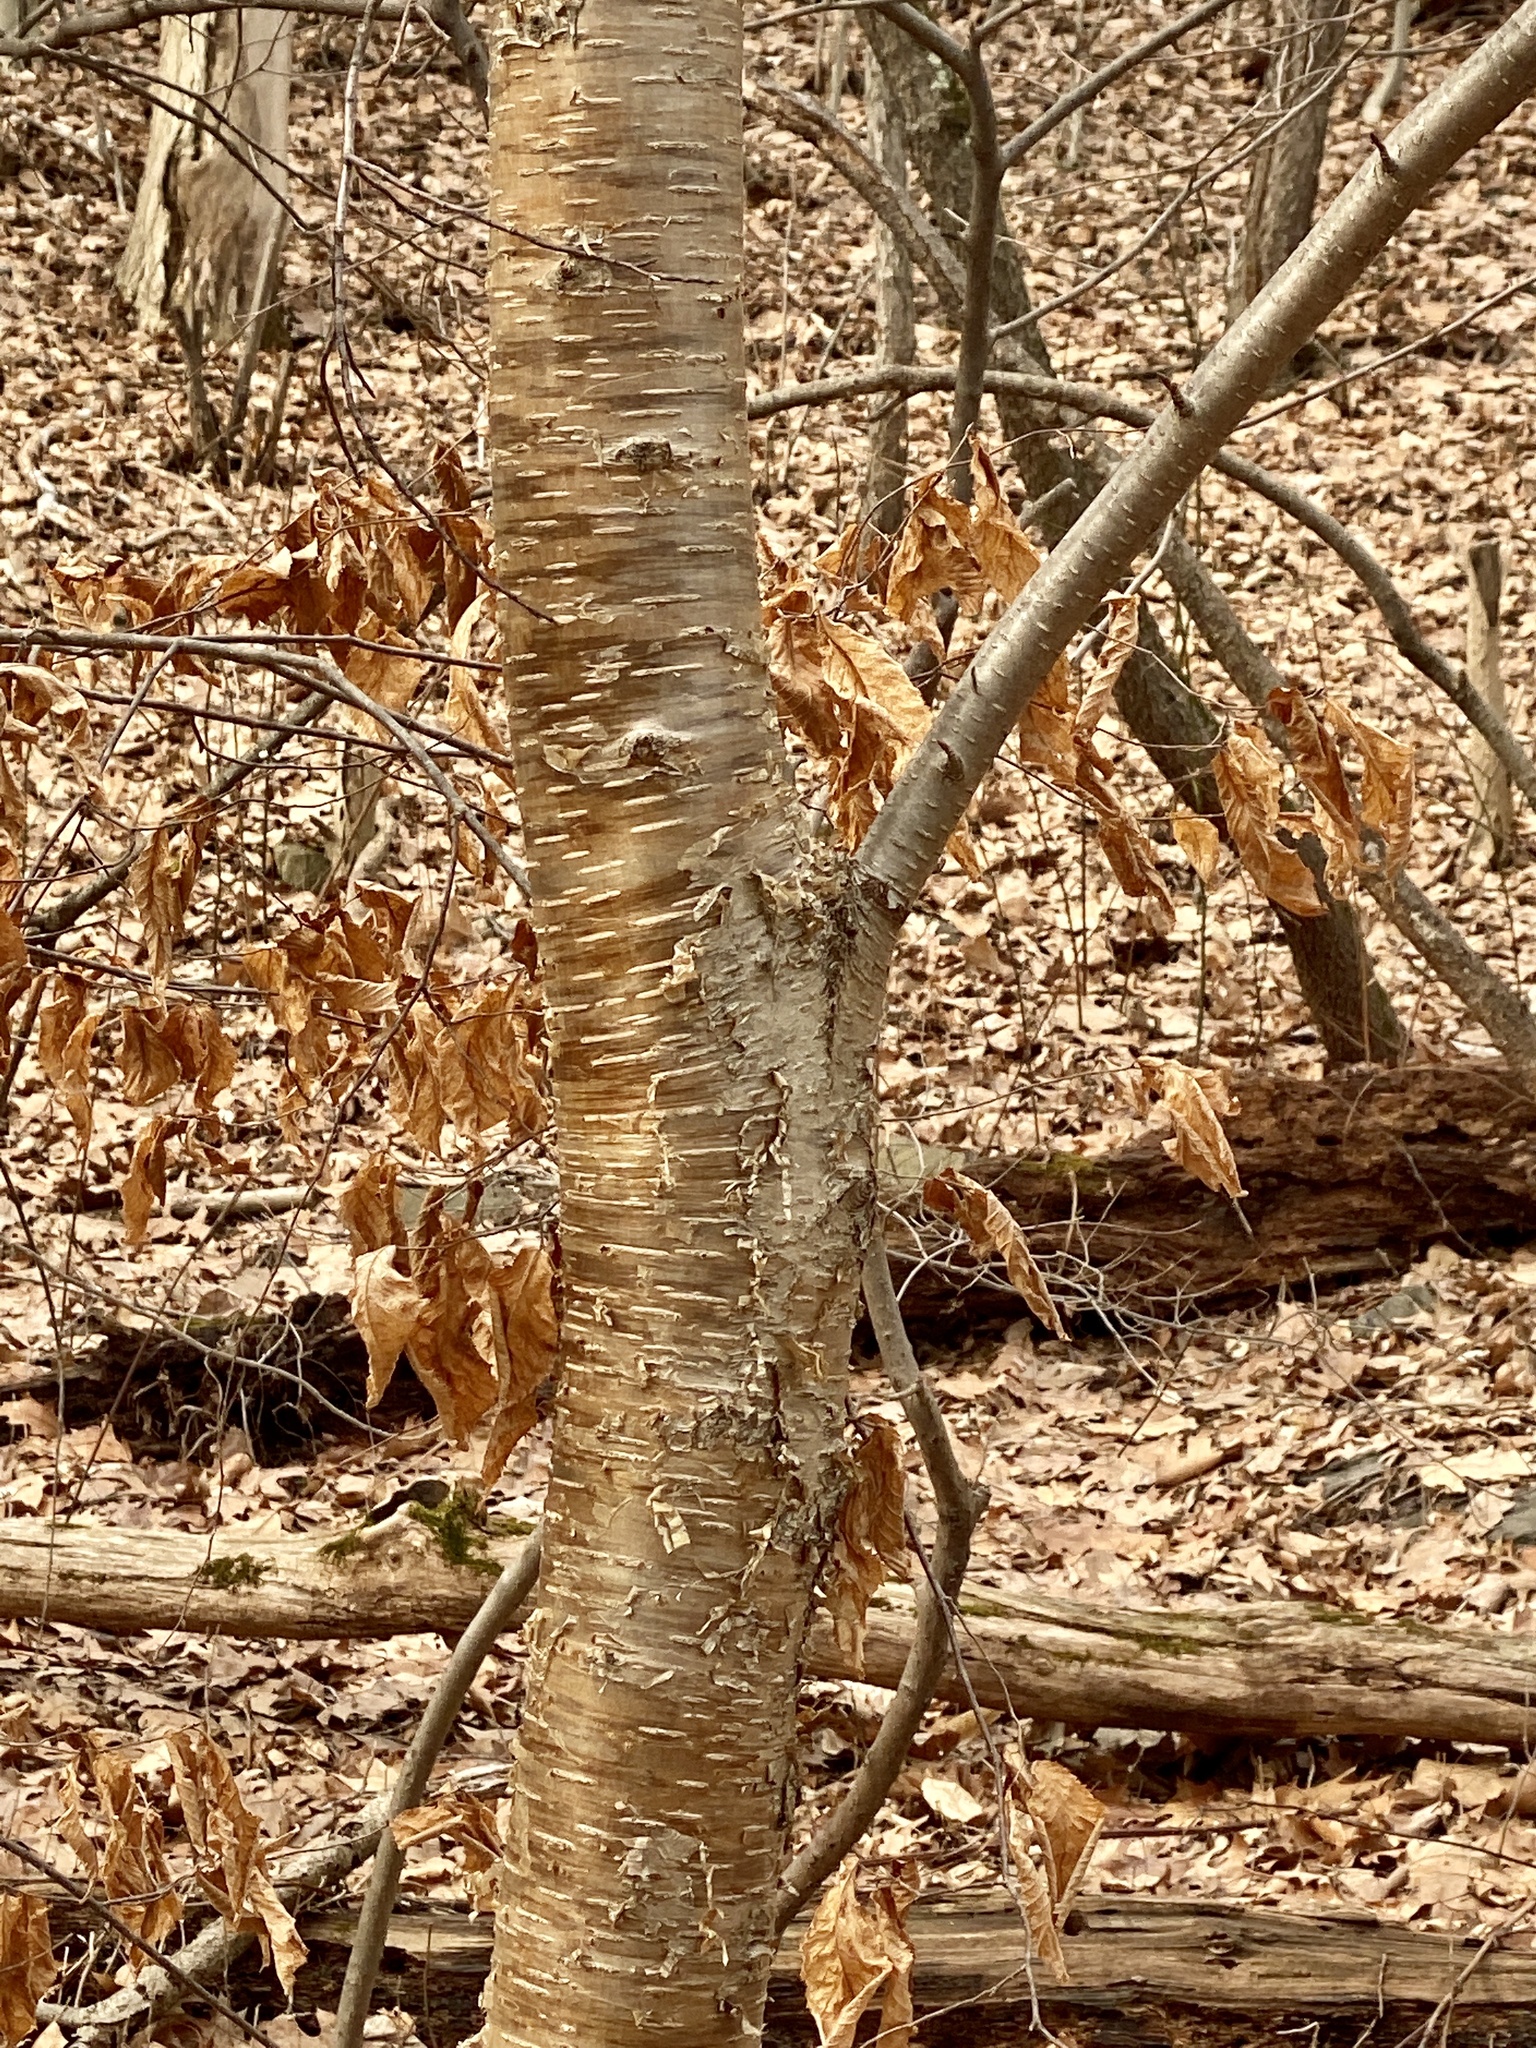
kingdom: Plantae
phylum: Tracheophyta
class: Magnoliopsida
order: Fagales
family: Betulaceae
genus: Betula
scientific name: Betula alleghaniensis
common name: Yellow birch
